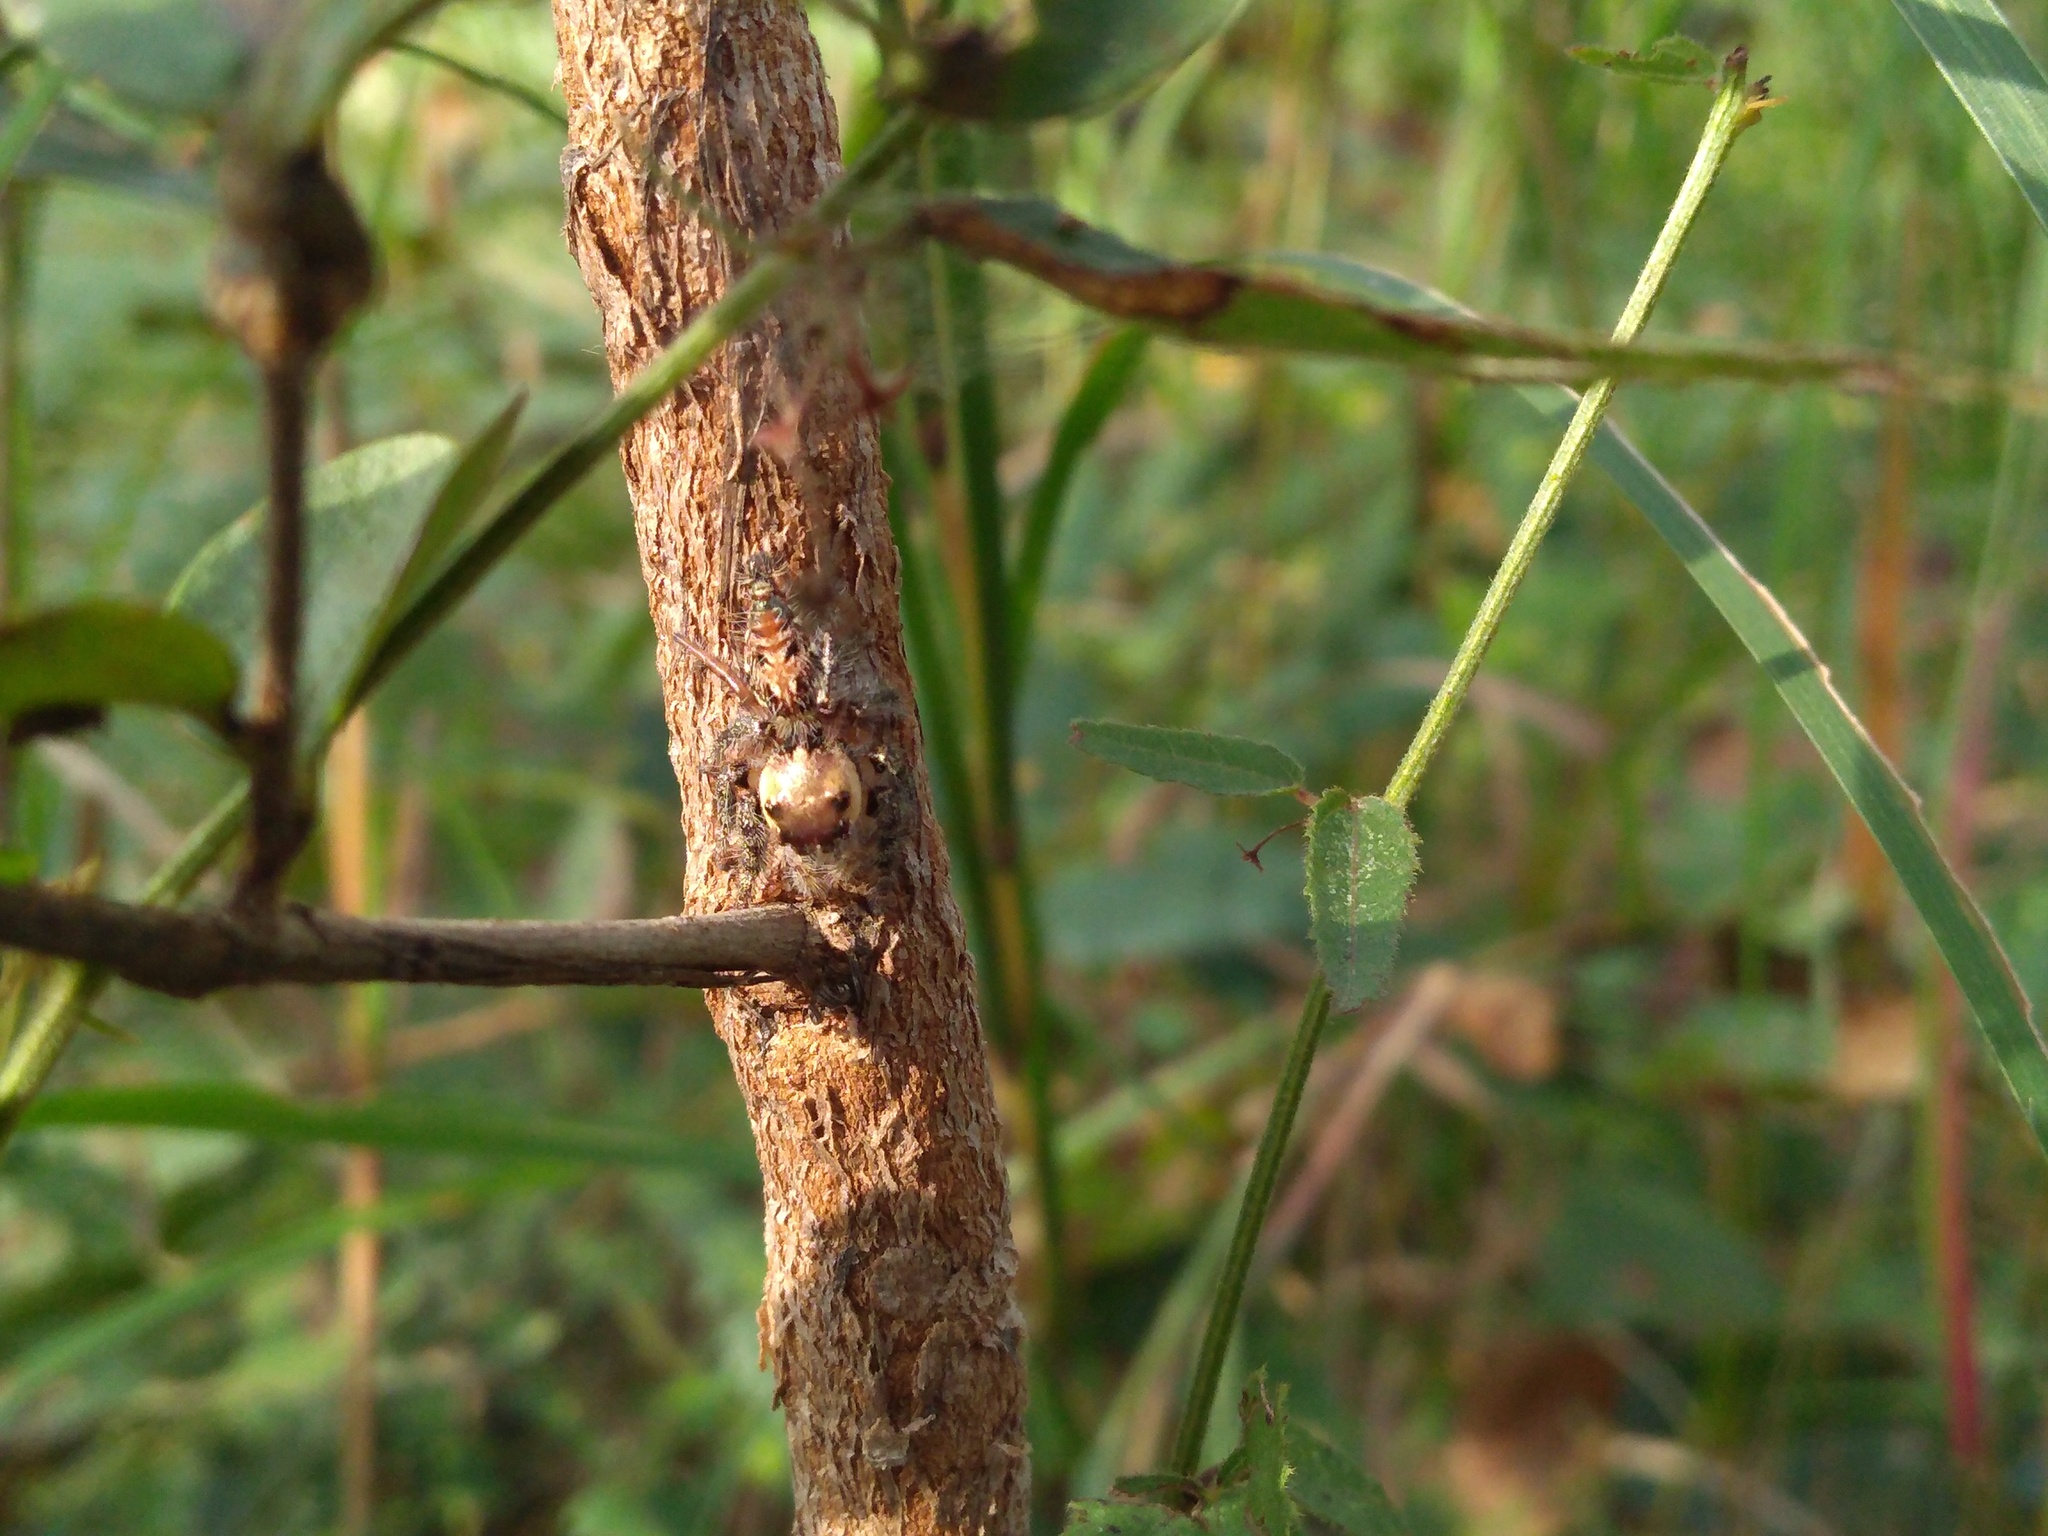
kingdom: Animalia
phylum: Arthropoda
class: Arachnida
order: Araneae
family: Salticidae
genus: Hyllus
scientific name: Hyllus semicupreus
